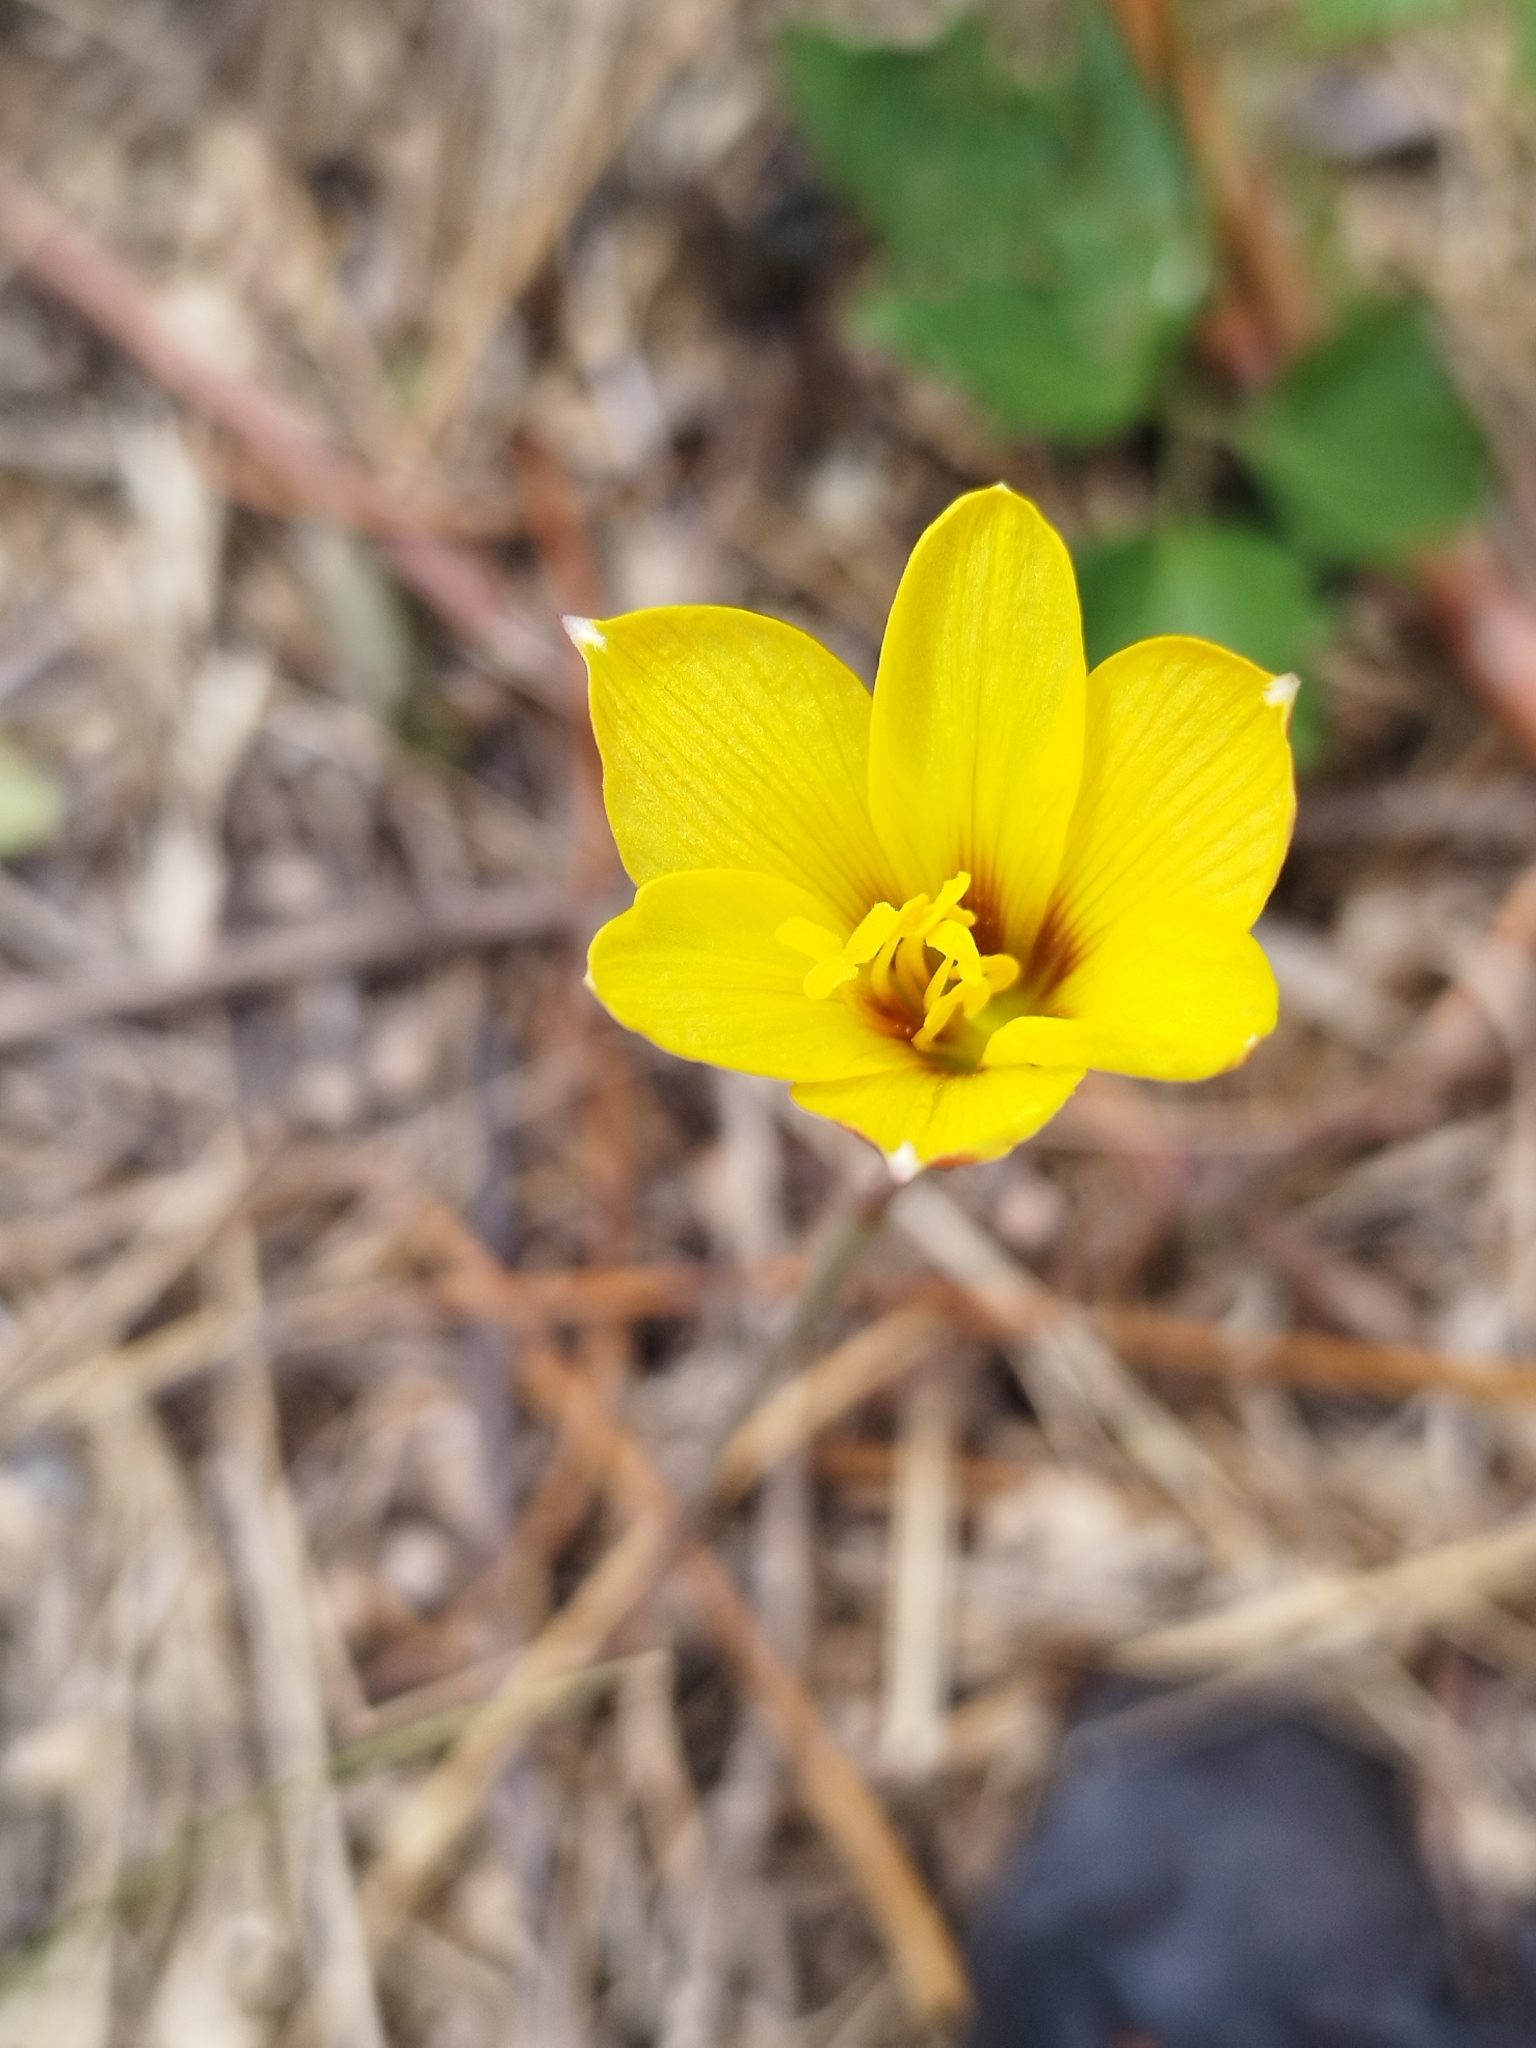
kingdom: Plantae
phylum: Tracheophyta
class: Liliopsida
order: Asparagales
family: Amaryllidaceae
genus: Zephyranthes
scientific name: Zephyranthes tubispatha
